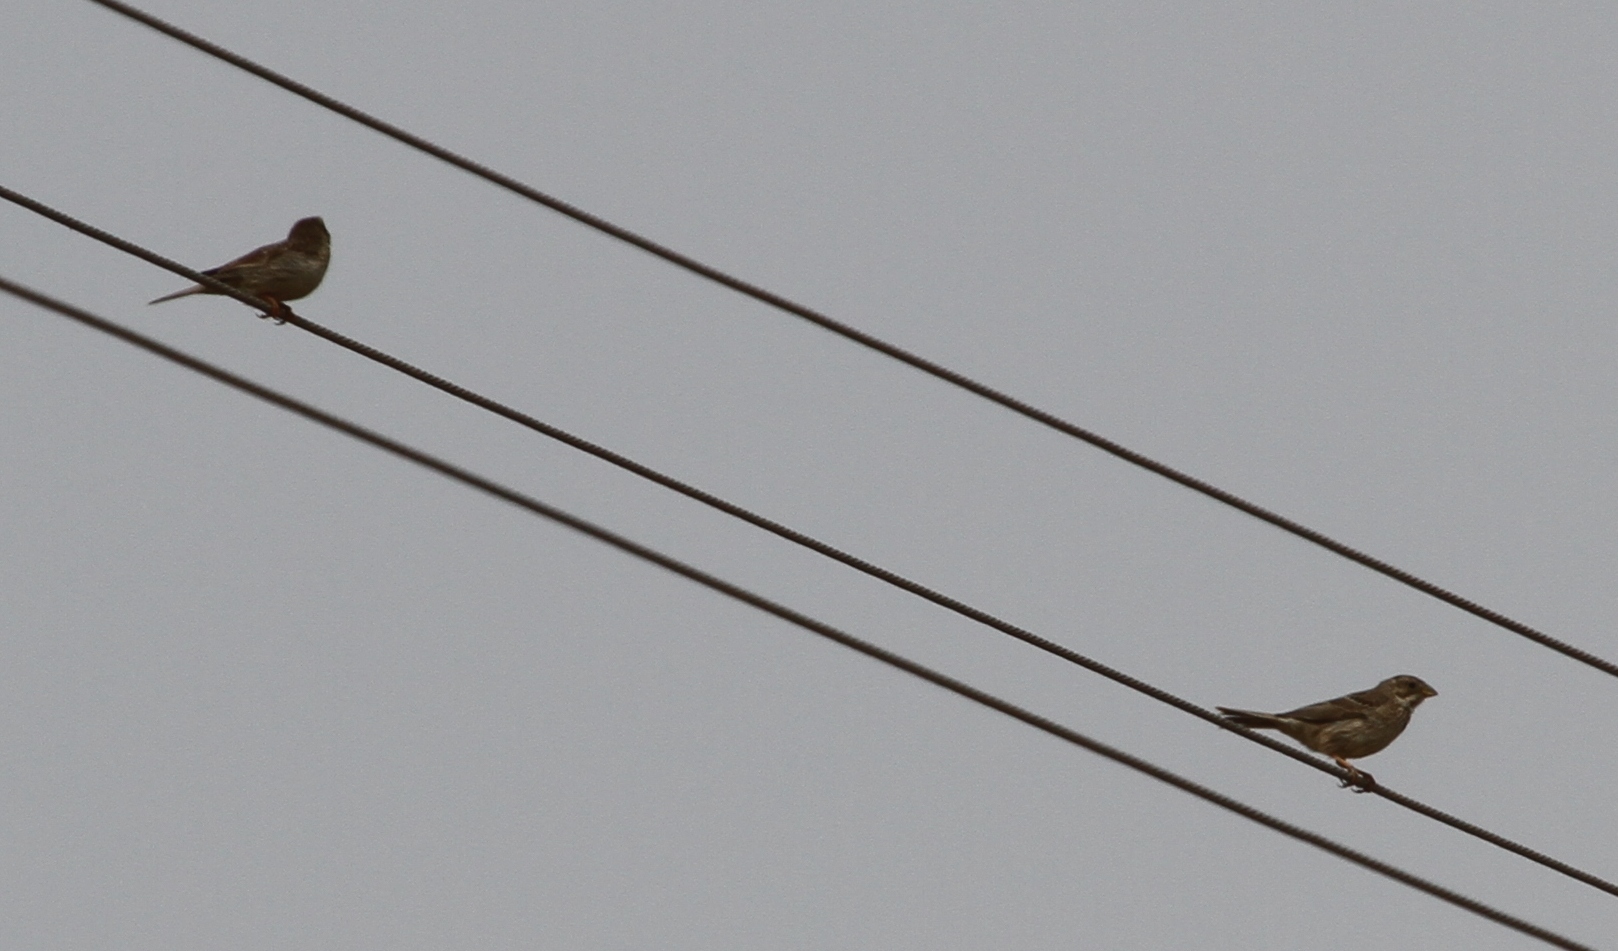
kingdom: Animalia
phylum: Chordata
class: Aves
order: Passeriformes
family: Emberizidae
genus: Emberiza
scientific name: Emberiza calandra
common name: Corn bunting
